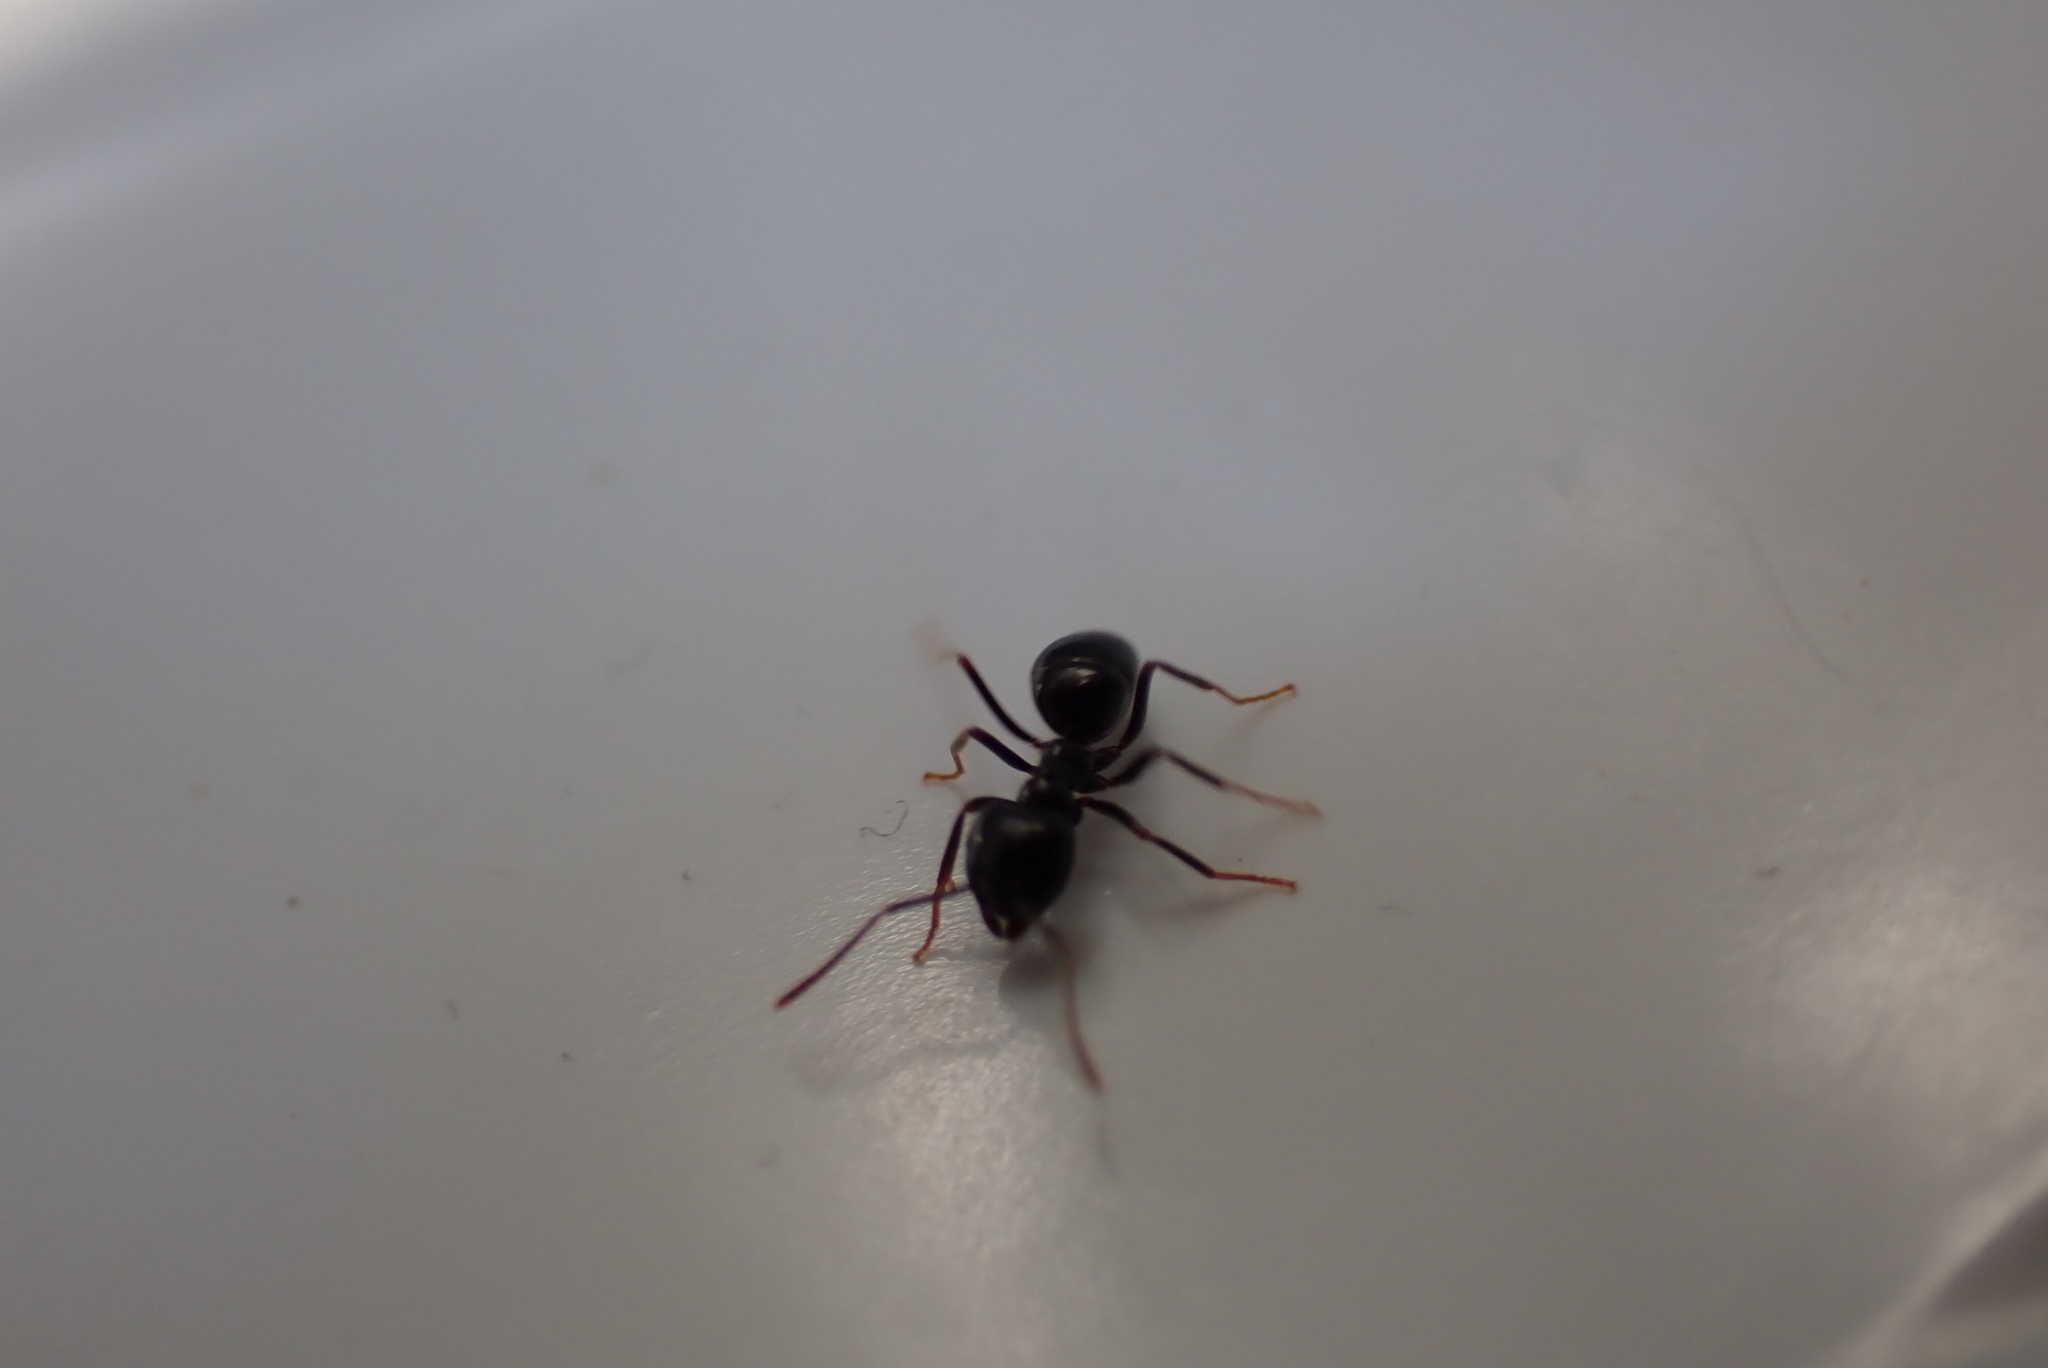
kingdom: Animalia
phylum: Arthropoda
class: Insecta
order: Hymenoptera
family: Formicidae
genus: Lasius
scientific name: Lasius fuliginosus
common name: Jet ant
